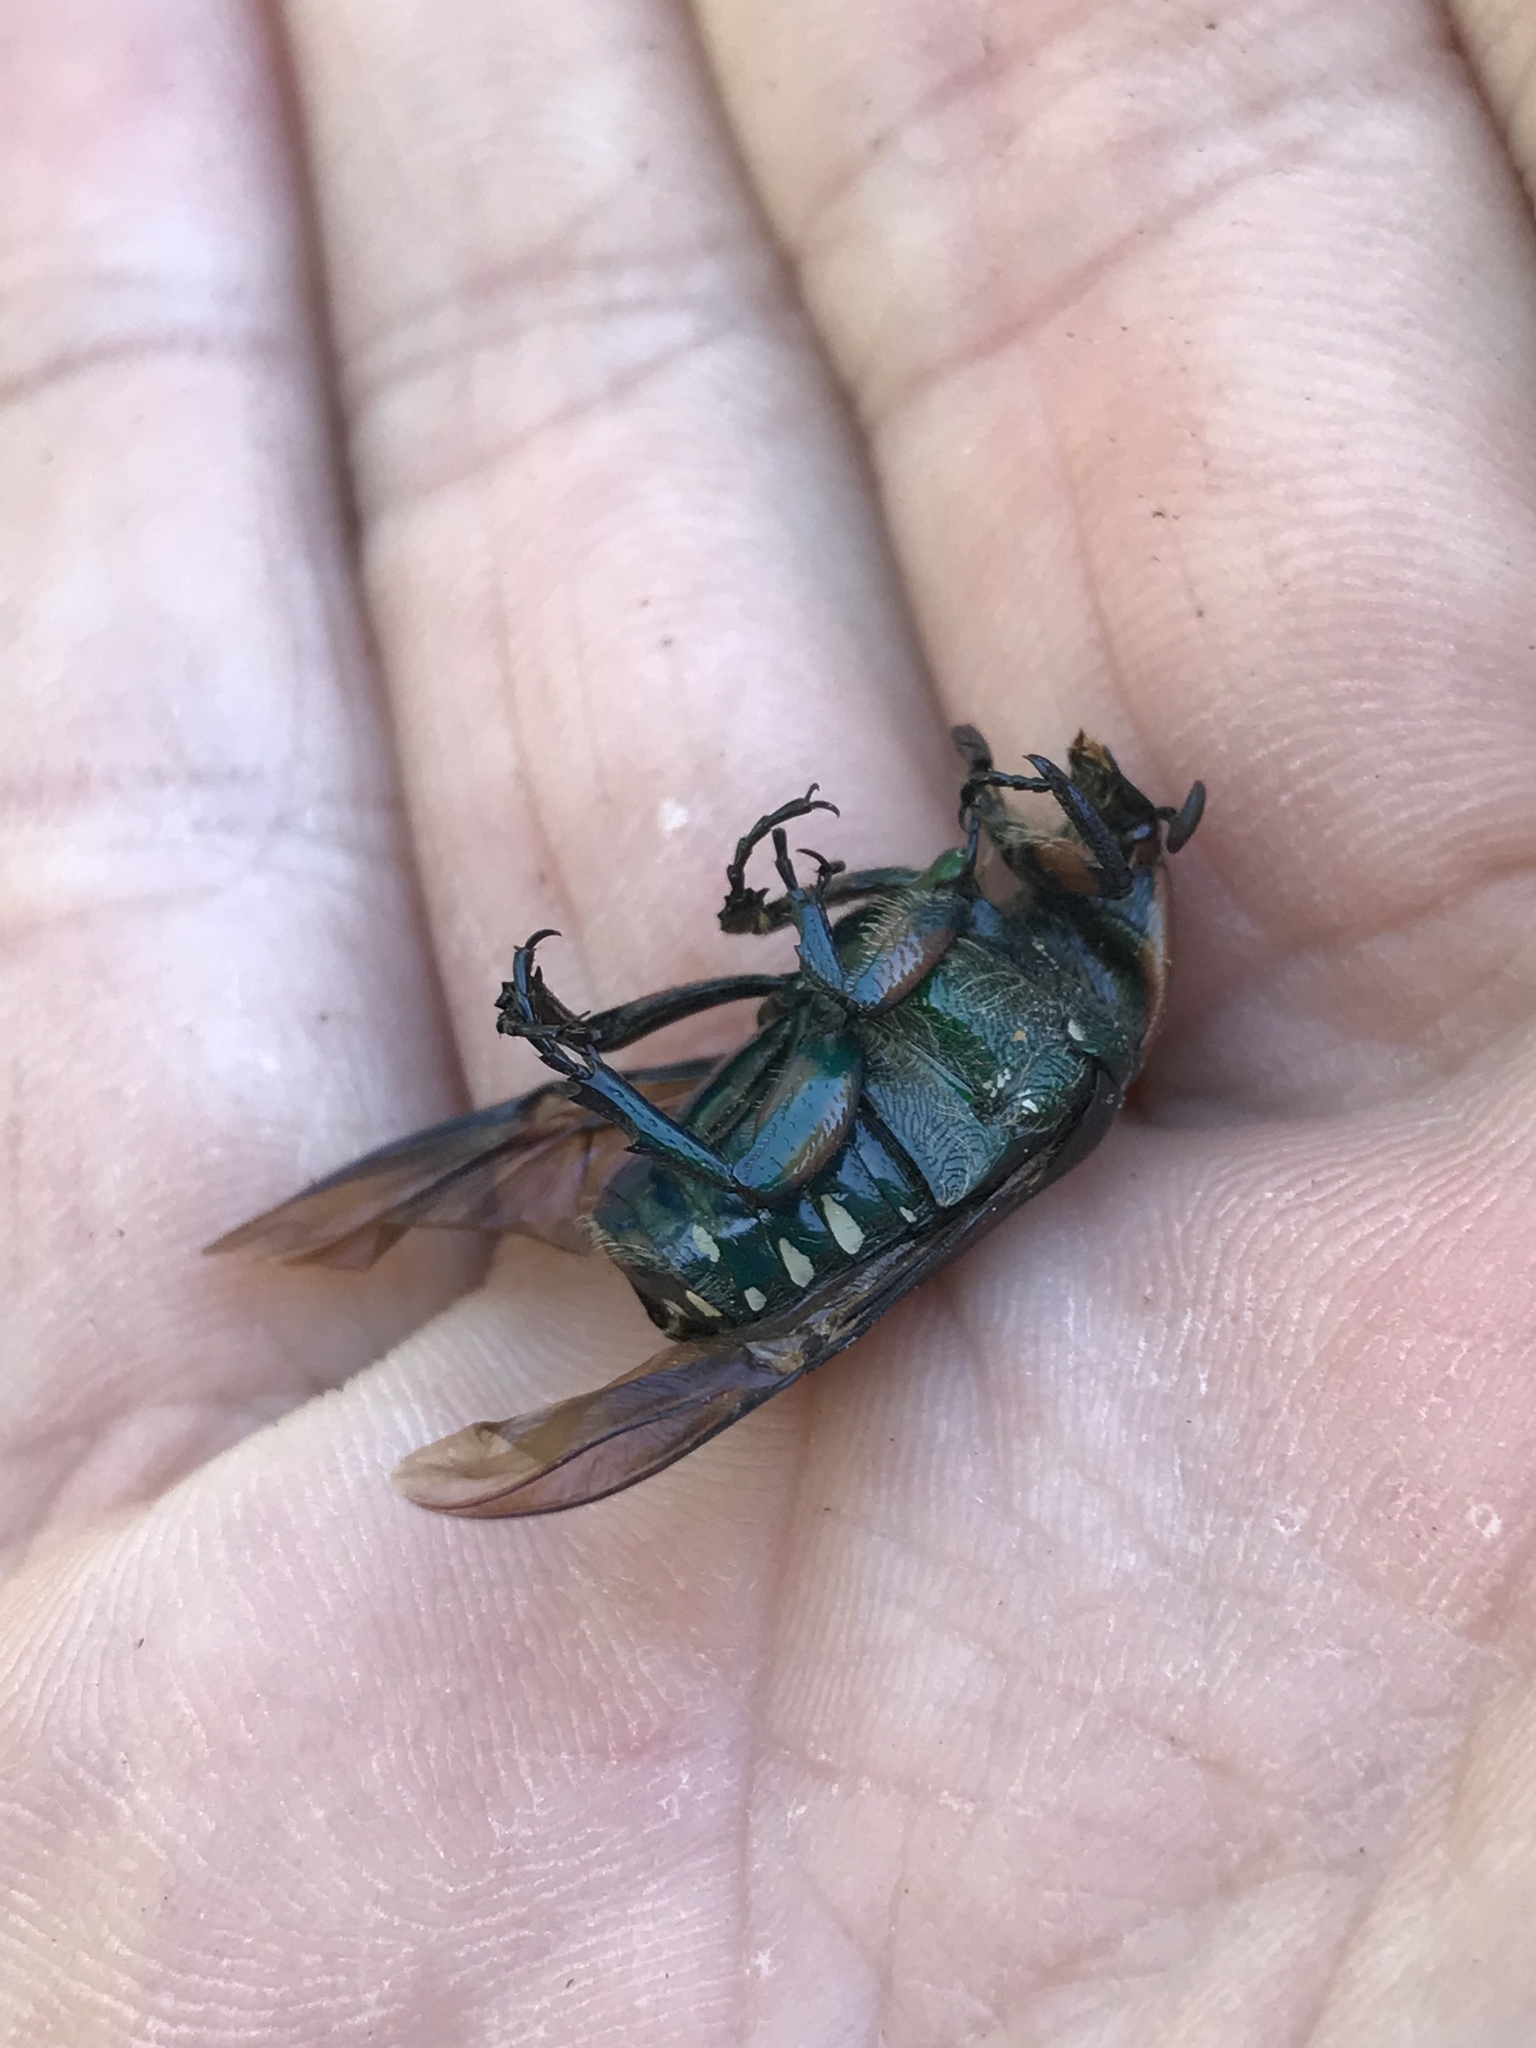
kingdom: Animalia
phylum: Arthropoda
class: Insecta
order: Coleoptera
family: Scarabaeidae
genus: Euphoria
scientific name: Euphoria fulgida
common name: Emerald euphoria
